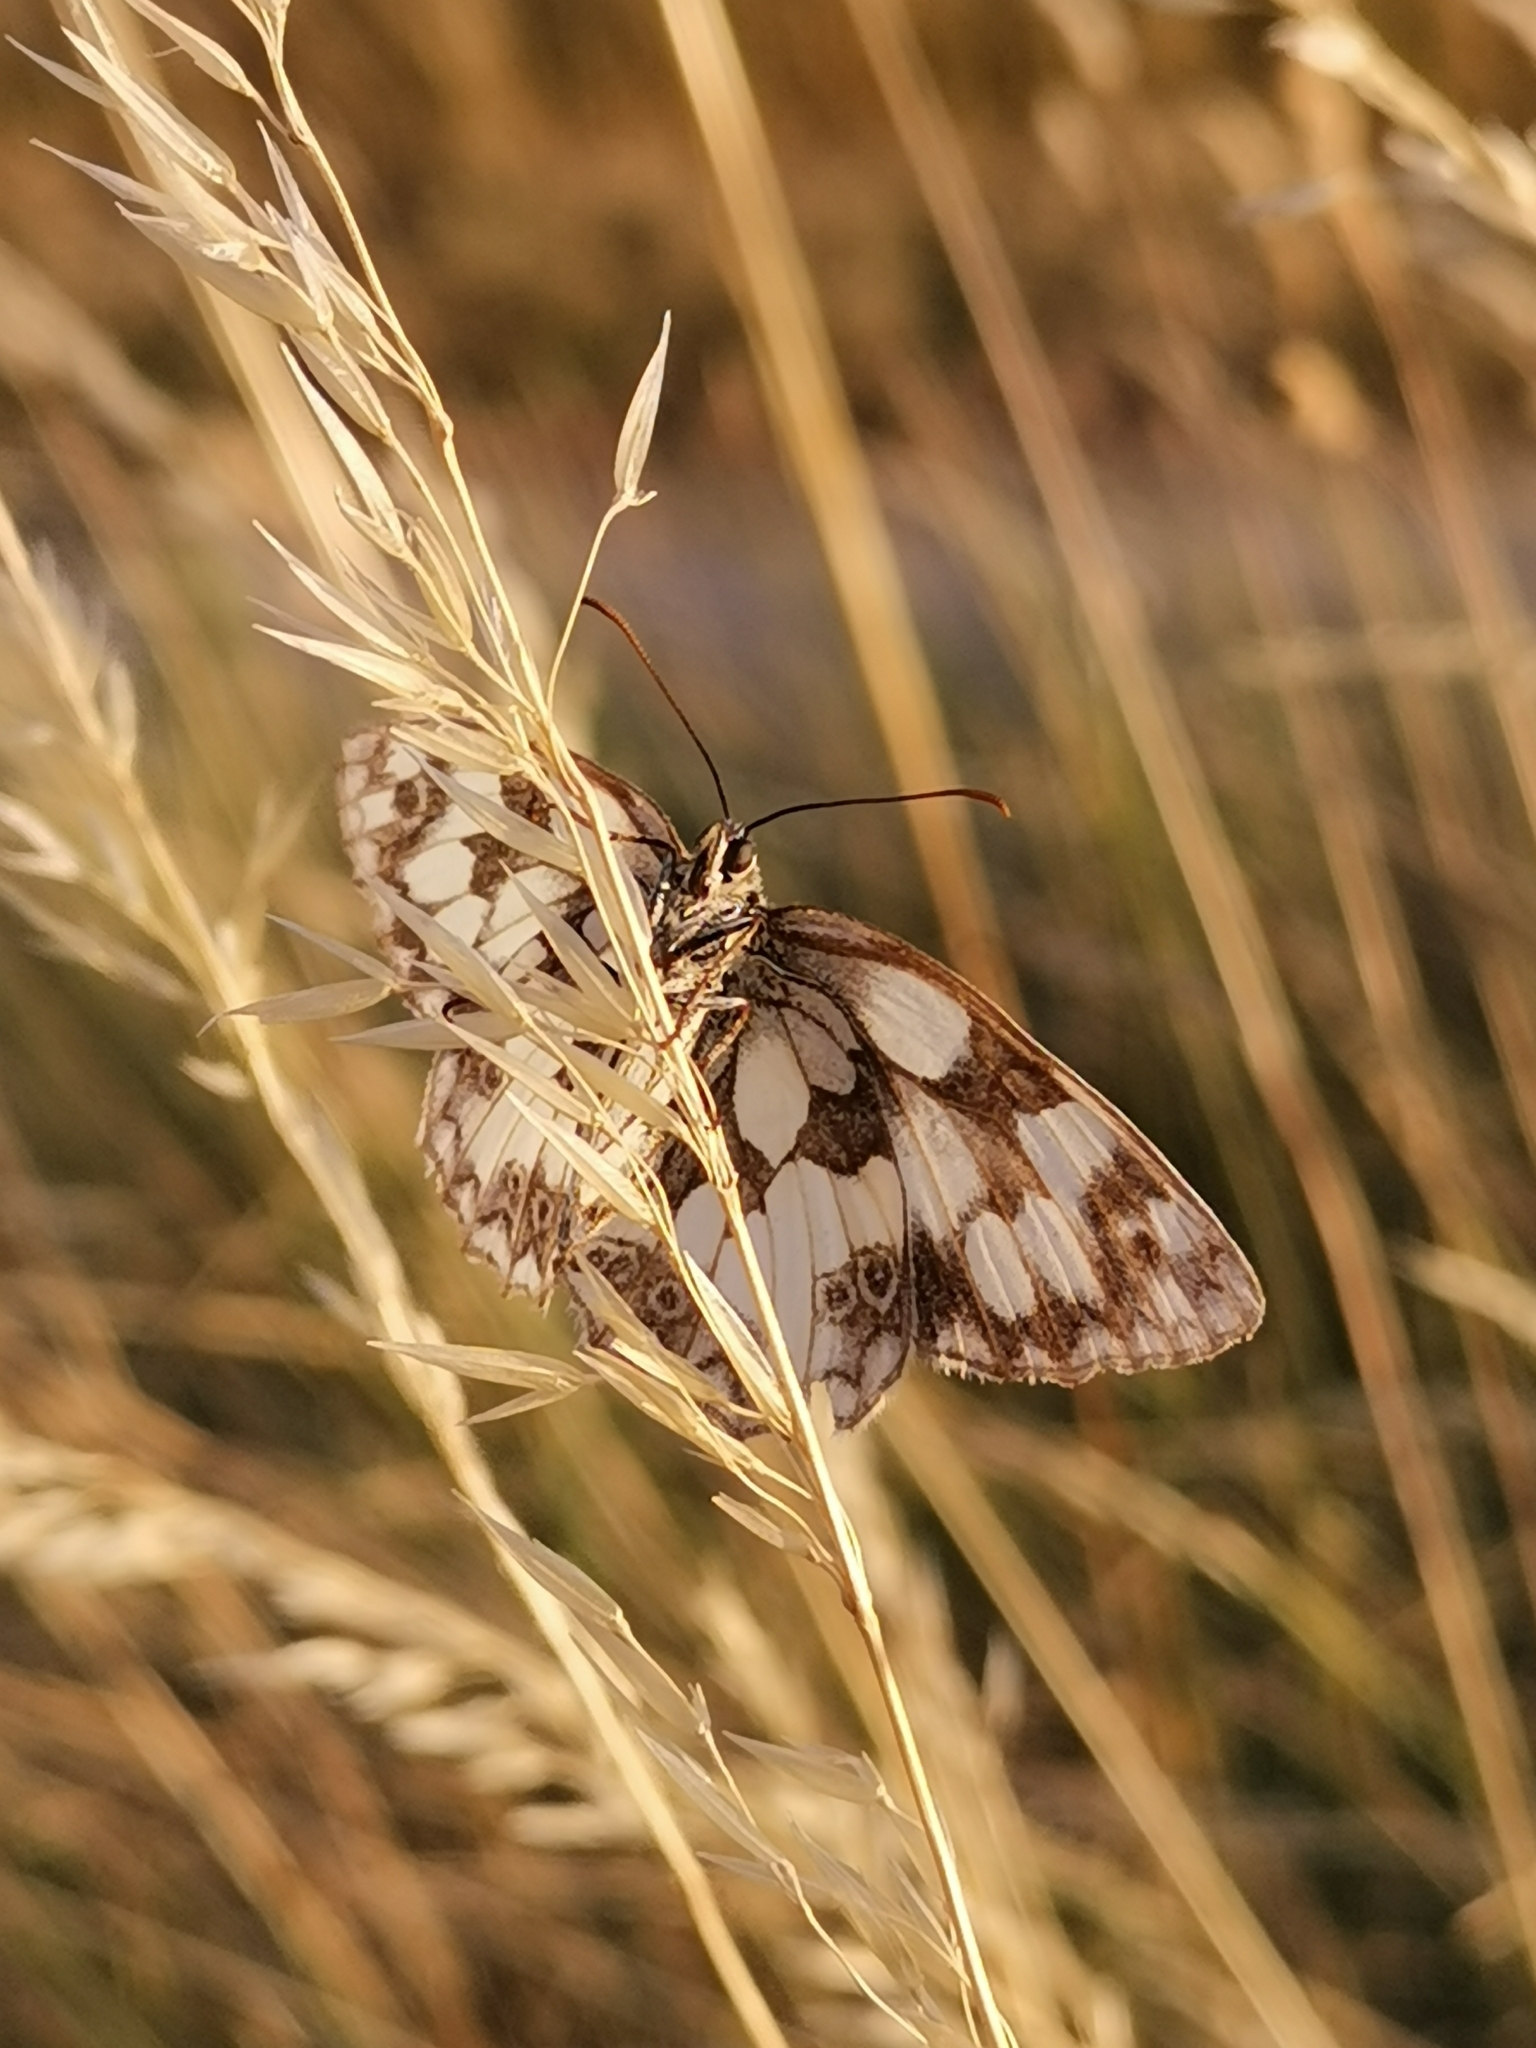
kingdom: Animalia
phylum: Arthropoda
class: Insecta
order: Lepidoptera
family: Nymphalidae
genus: Melanargia
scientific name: Melanargia galathea
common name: Marbled white
